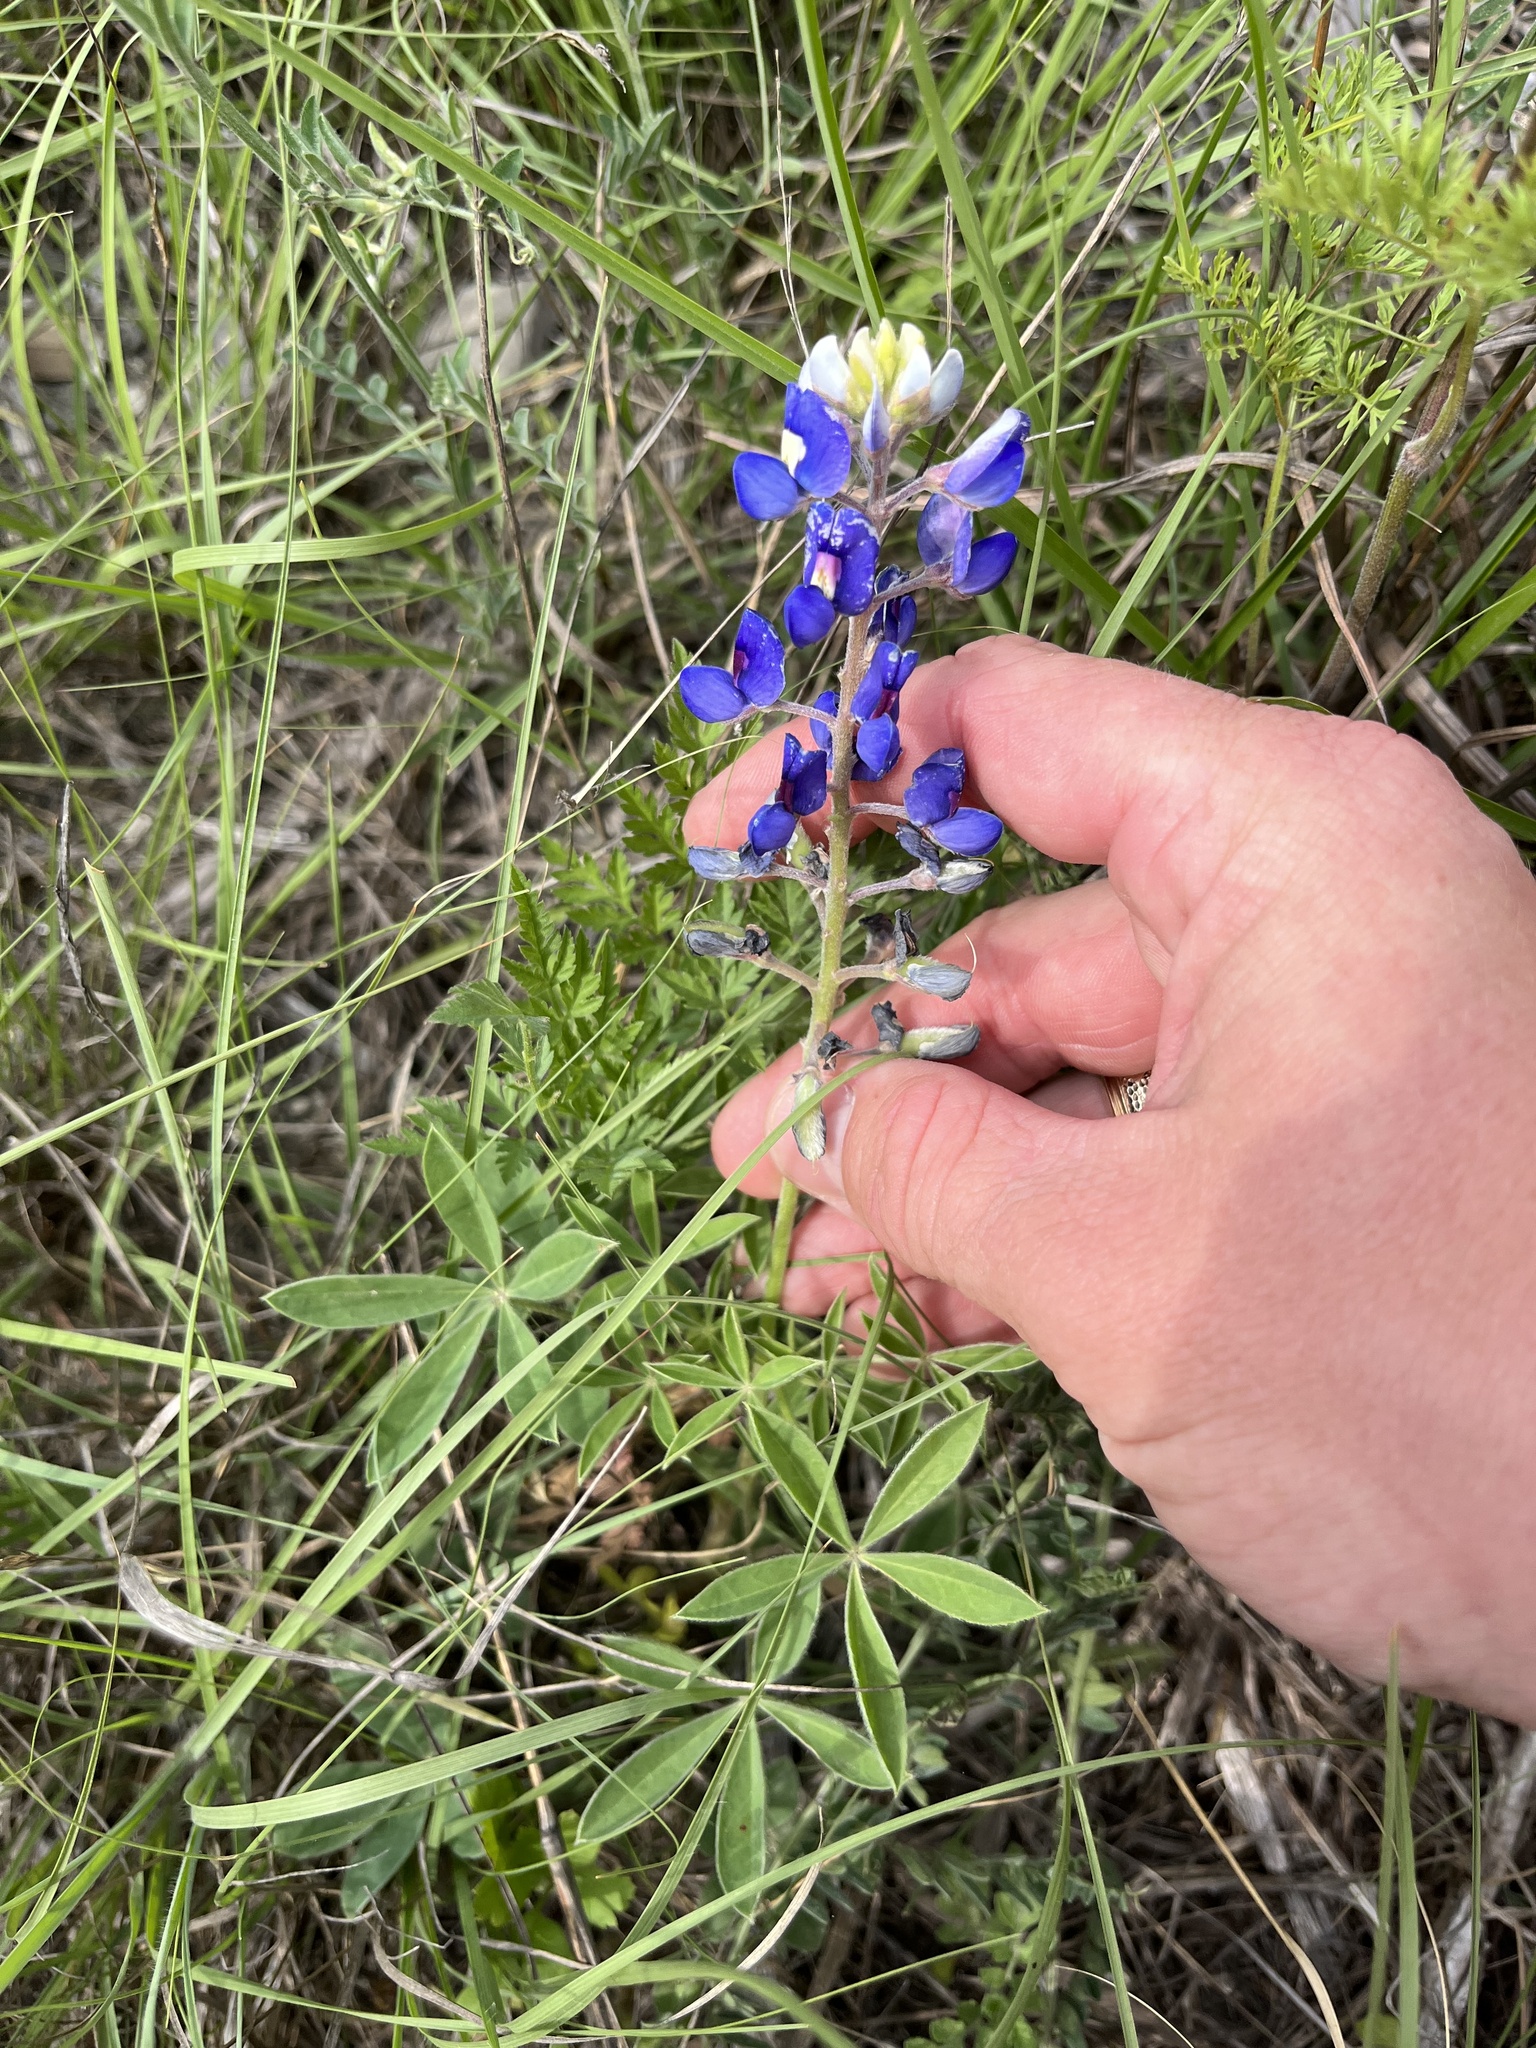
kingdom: Plantae
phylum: Tracheophyta
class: Magnoliopsida
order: Fabales
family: Fabaceae
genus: Lupinus
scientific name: Lupinus texensis
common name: Texas bluebonnet
